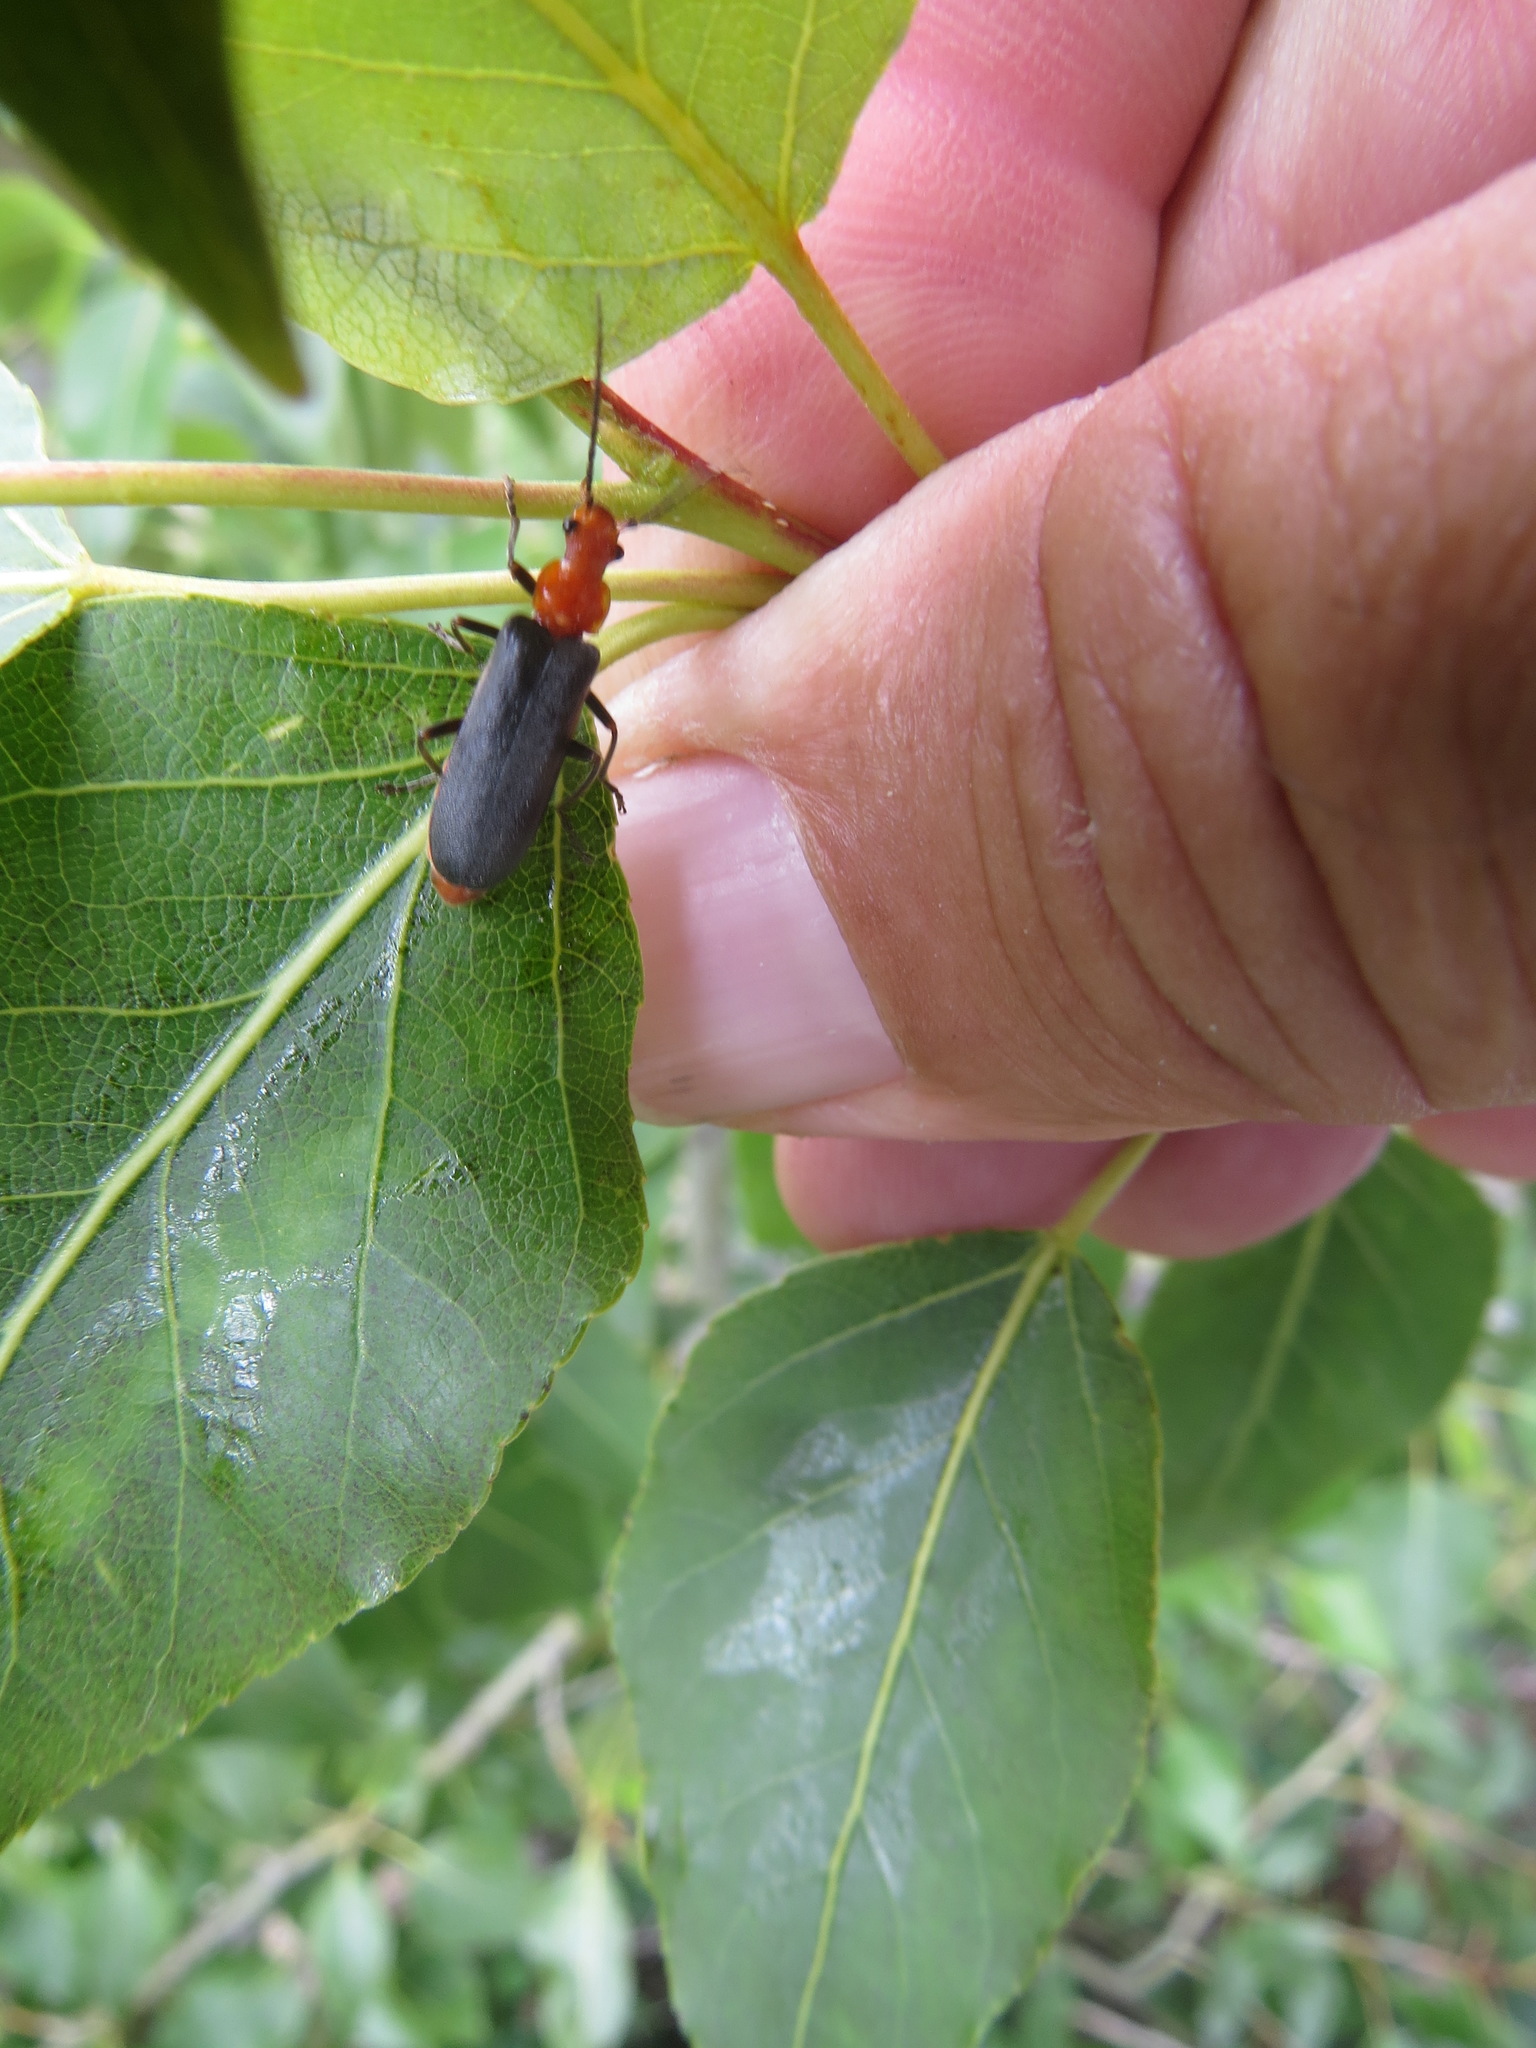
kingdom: Animalia
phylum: Arthropoda
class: Insecta
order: Coleoptera
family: Cantharidae
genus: Podabrus
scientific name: Podabrus pruinosus
